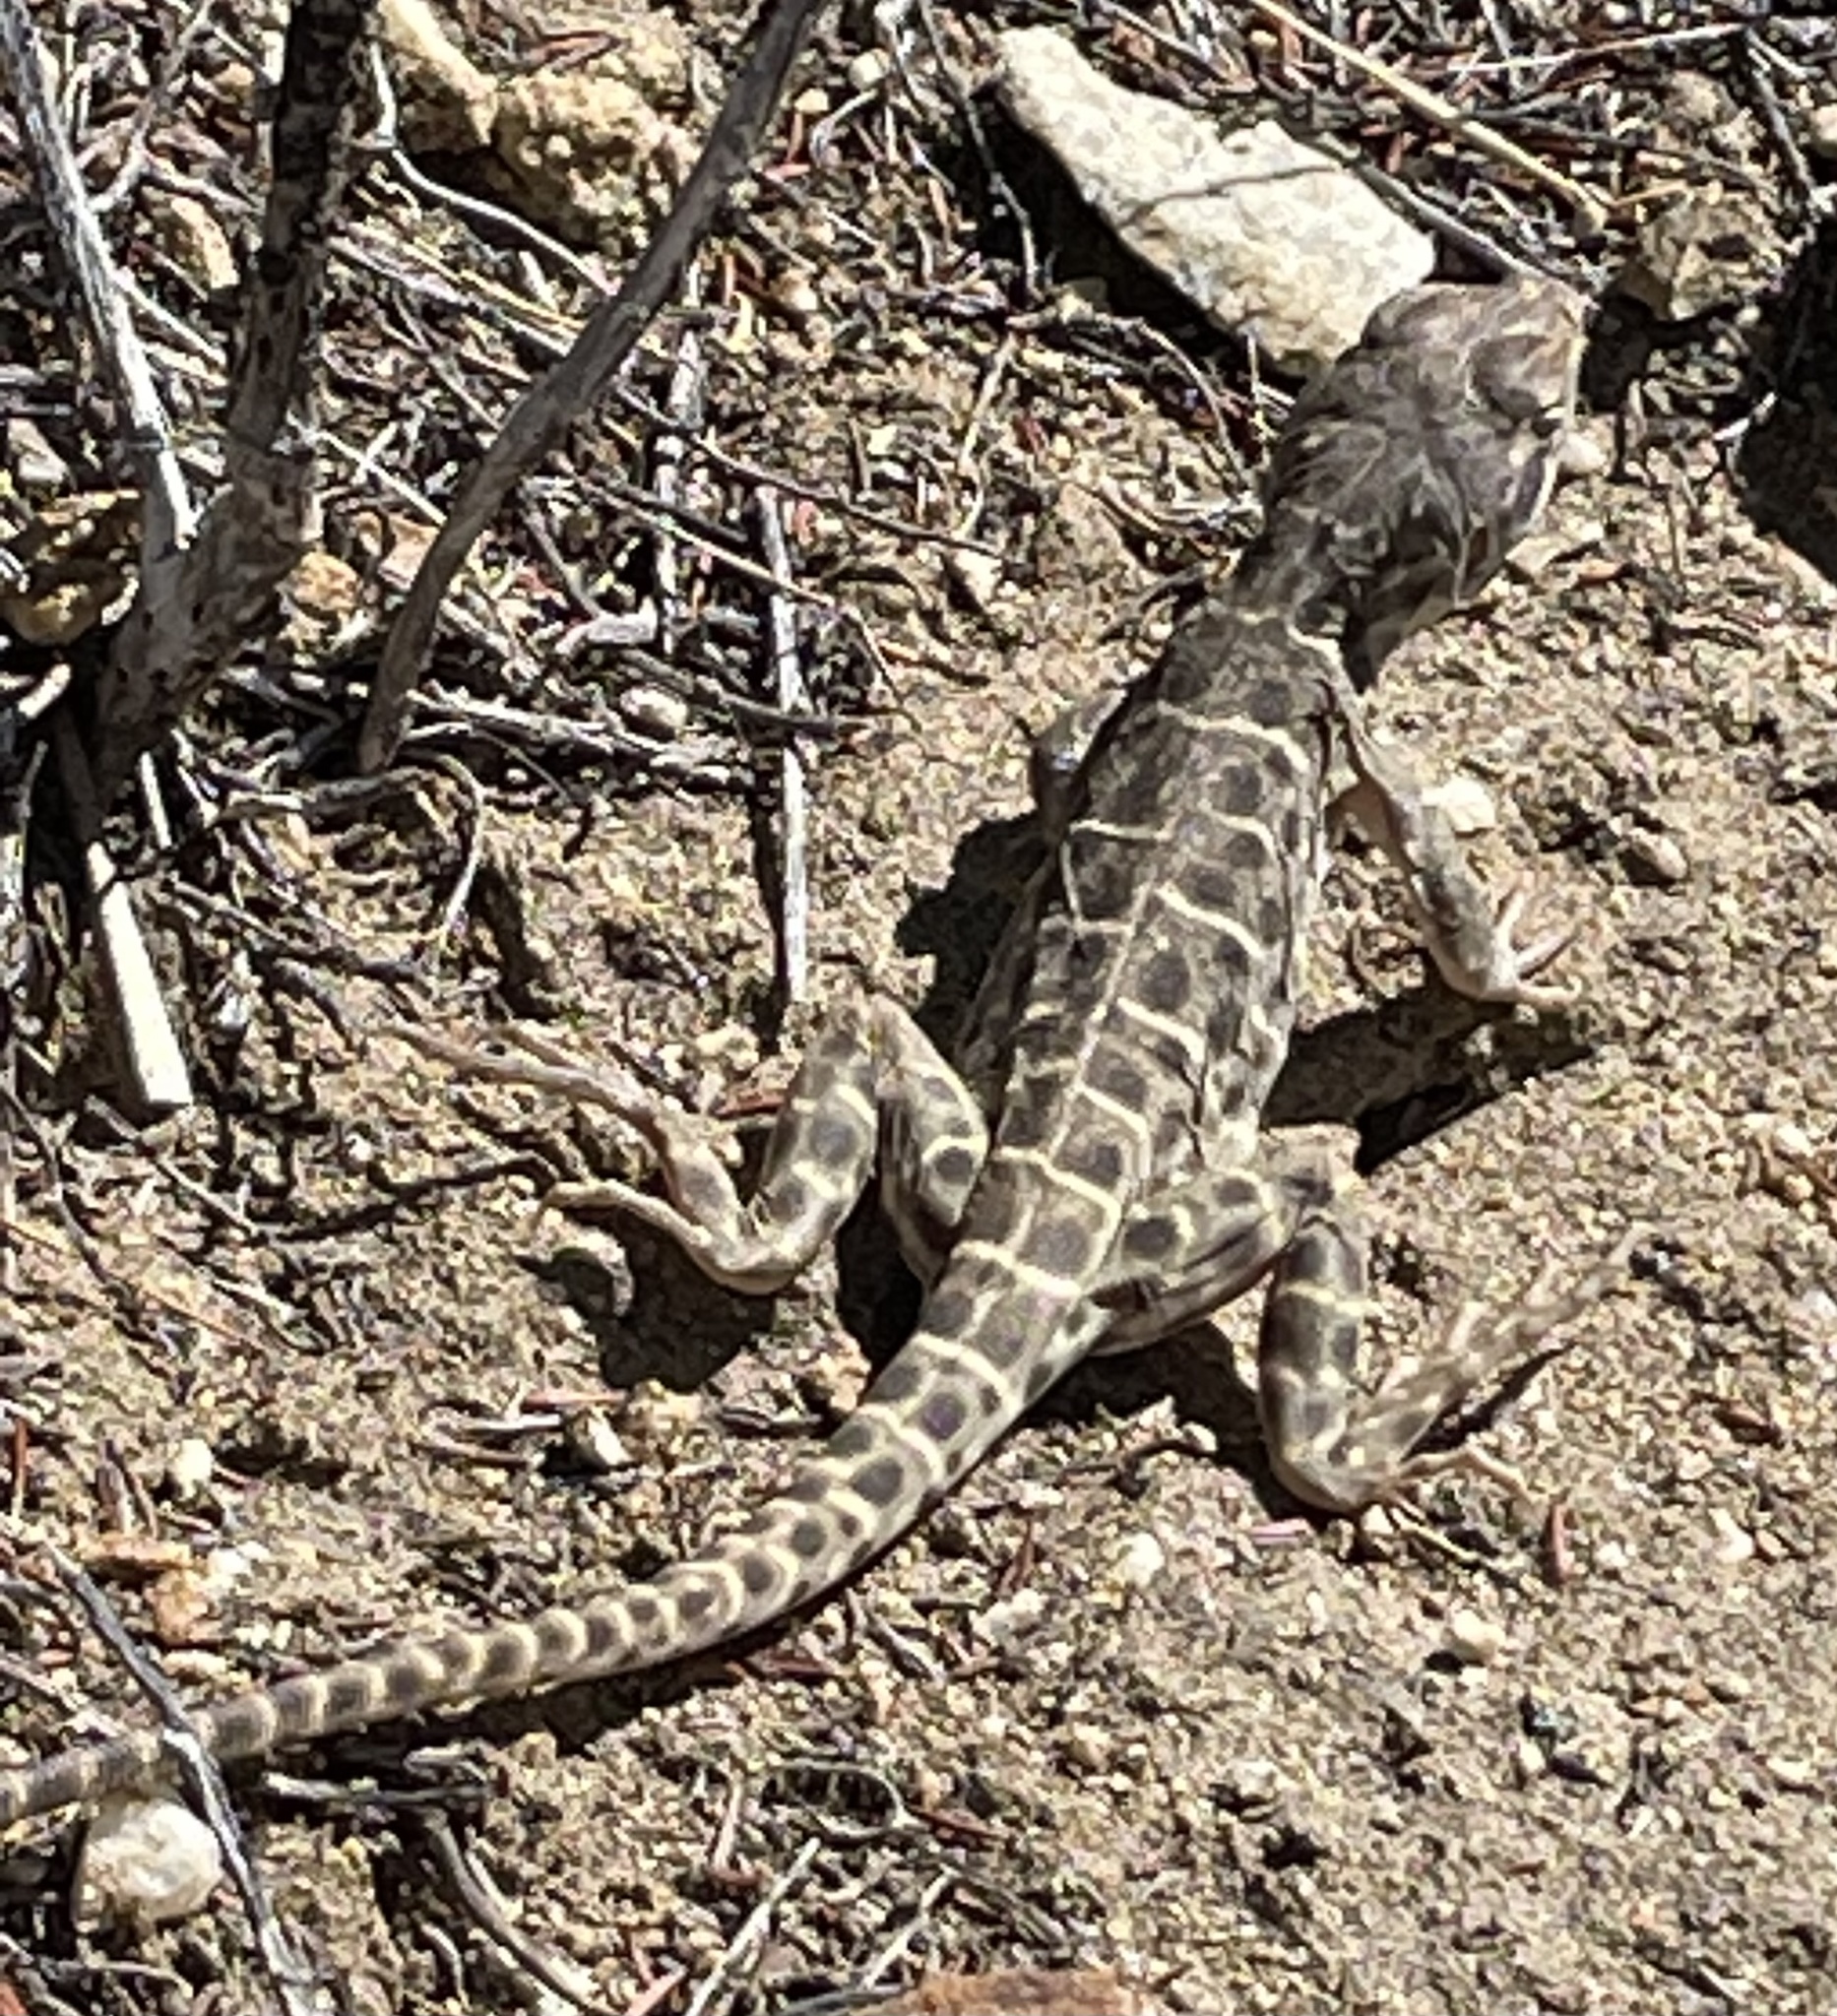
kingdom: Animalia
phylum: Chordata
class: Squamata
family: Crotaphytidae
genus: Gambelia
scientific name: Gambelia wislizenii
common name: Longnose leopard lizard
